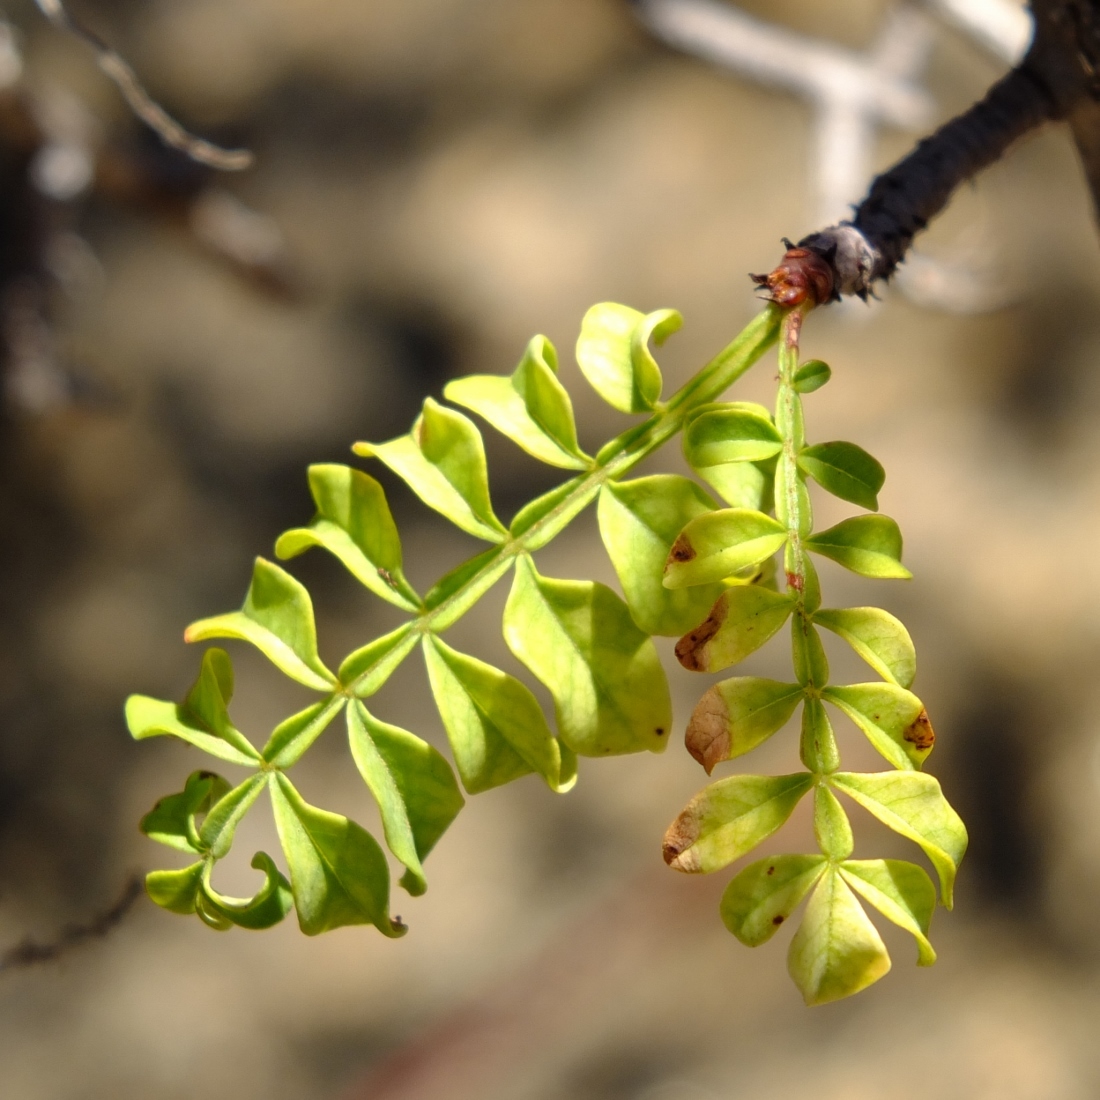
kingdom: Plantae
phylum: Tracheophyta
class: Magnoliopsida
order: Sapindales
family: Sapindaceae
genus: Erythrophysa
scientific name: Erythrophysa alata
